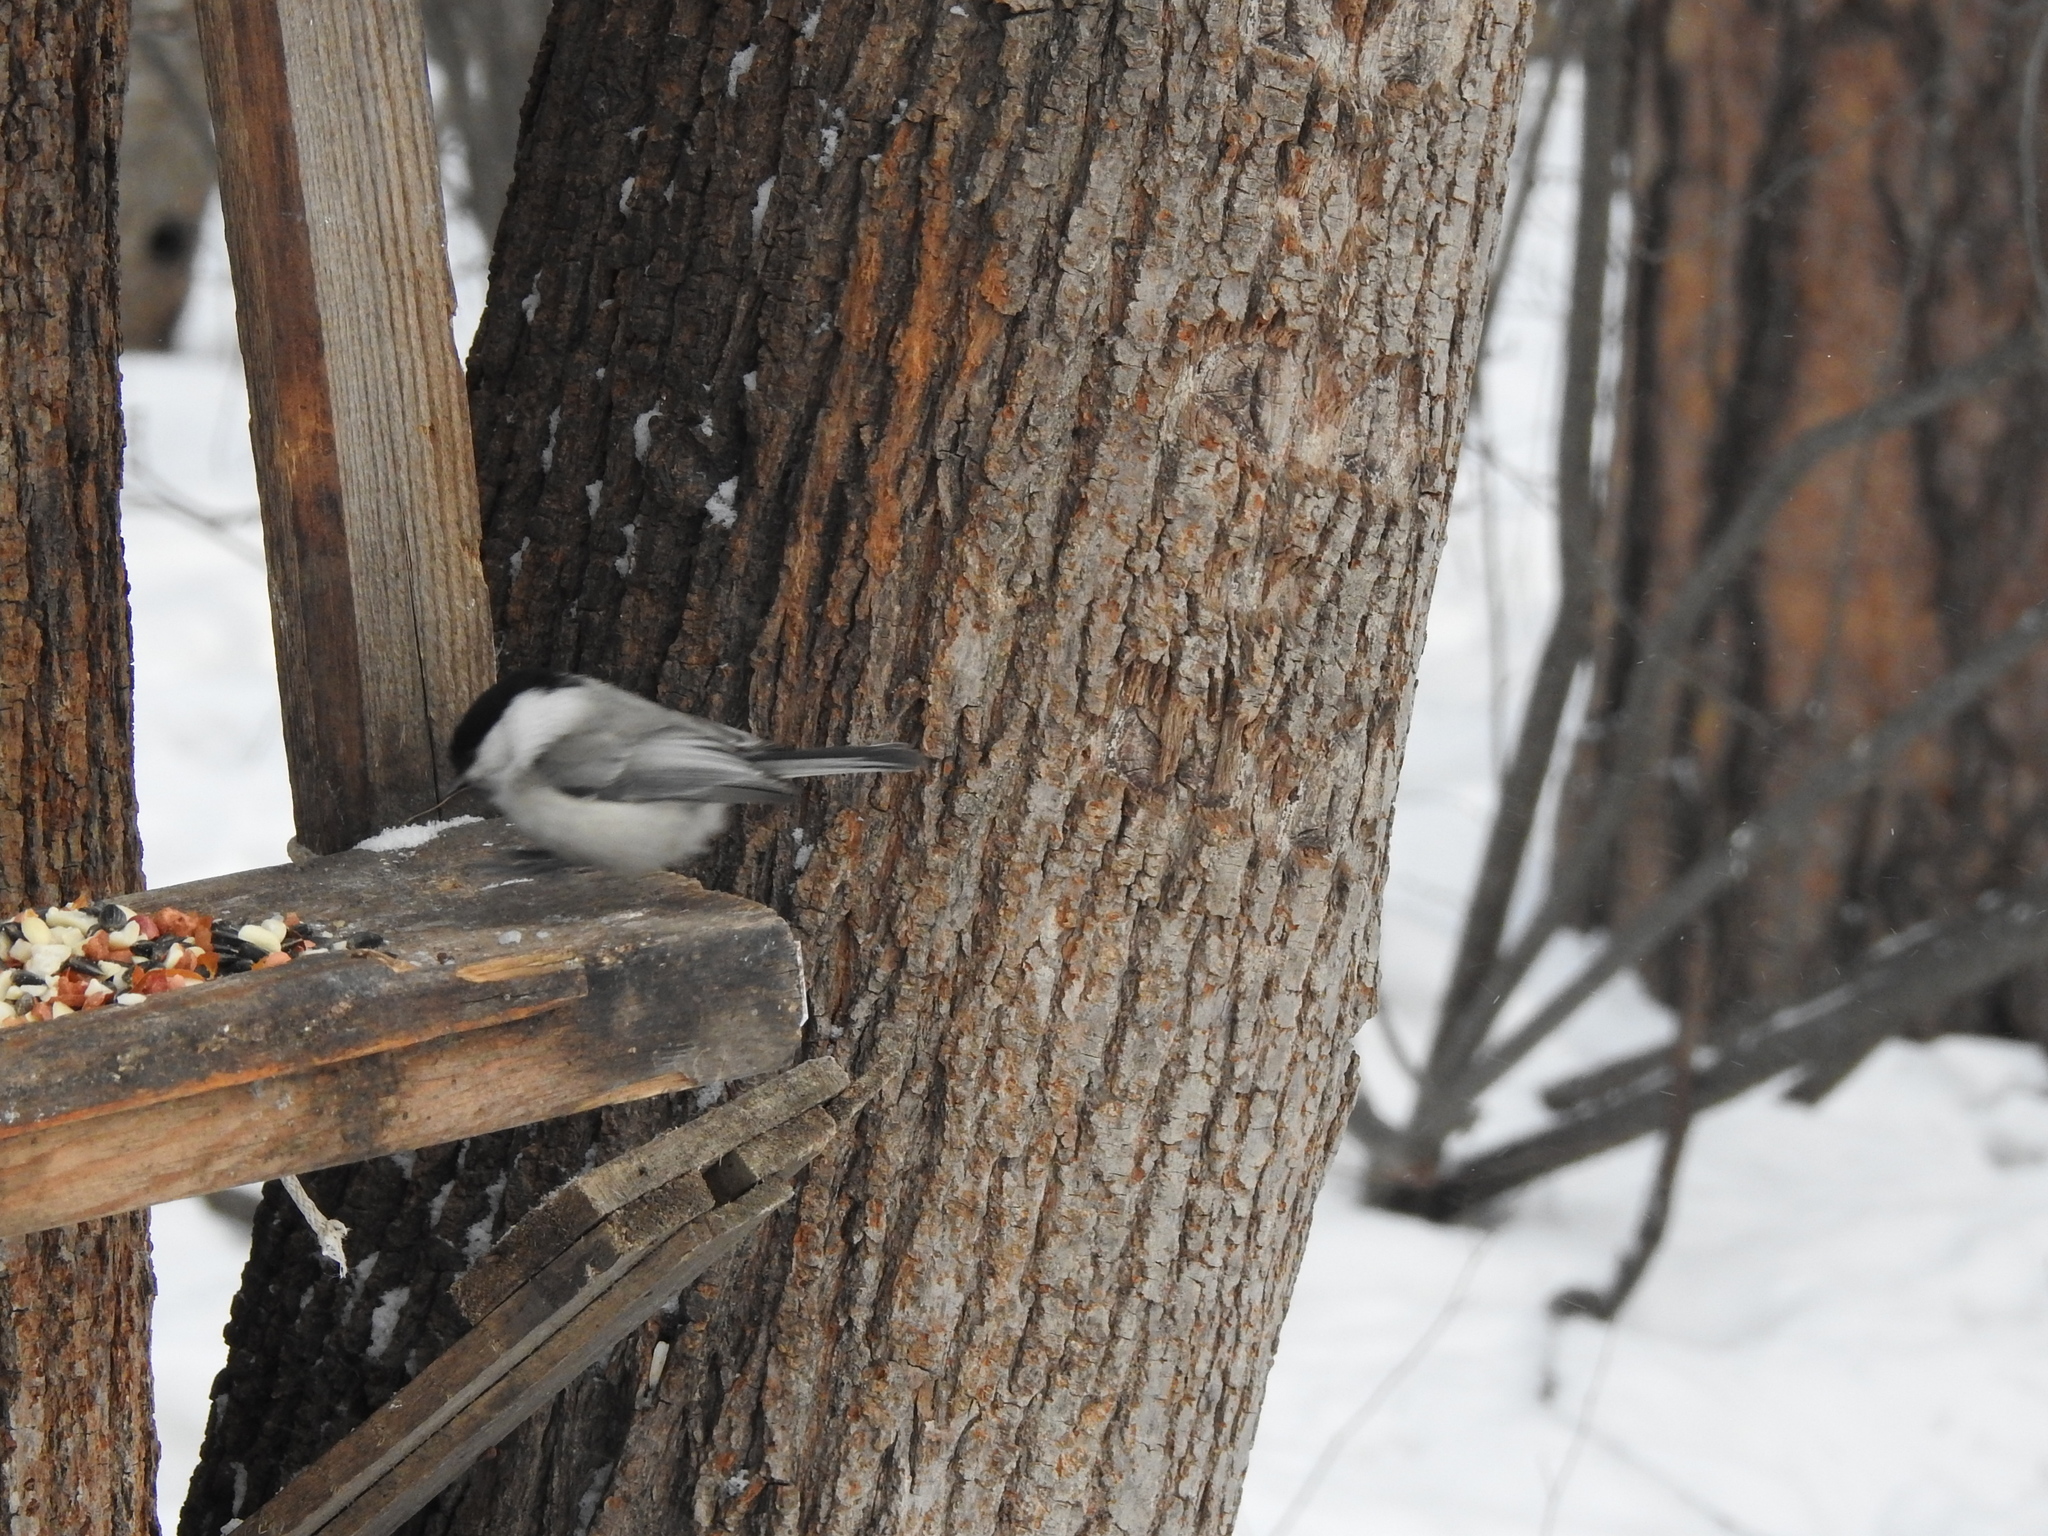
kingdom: Animalia
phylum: Chordata
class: Aves
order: Passeriformes
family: Paridae
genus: Poecile
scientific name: Poecile montanus
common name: Willow tit
